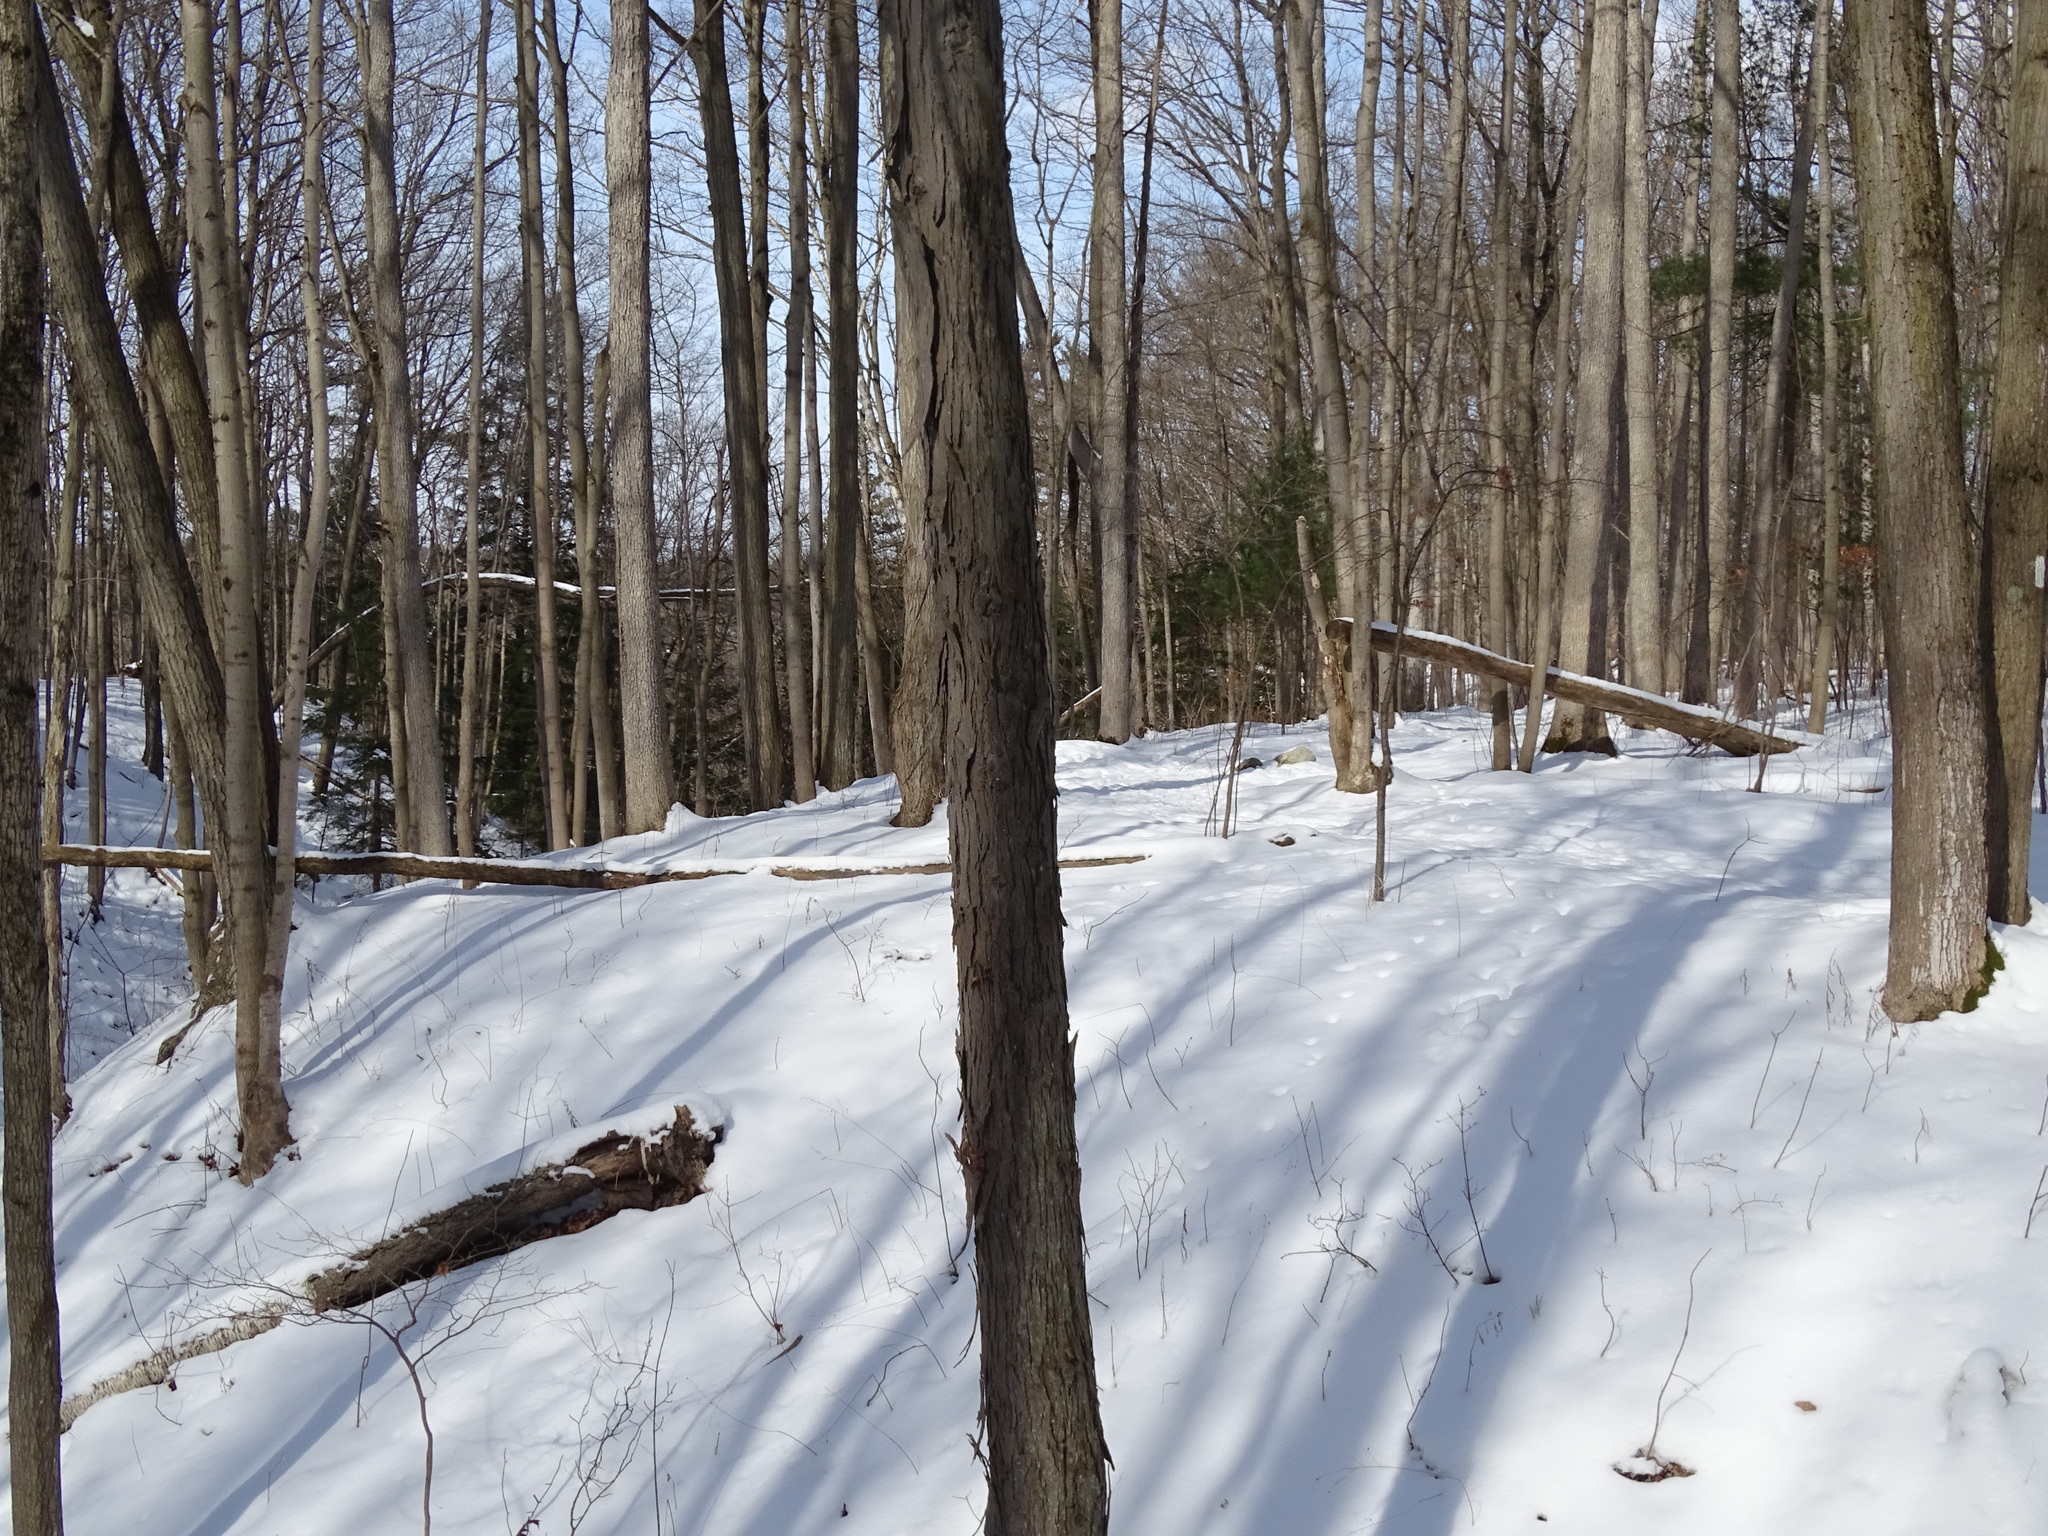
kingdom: Plantae
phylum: Tracheophyta
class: Magnoliopsida
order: Fagales
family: Juglandaceae
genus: Carya
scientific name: Carya ovata
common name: Shagbark hickory
